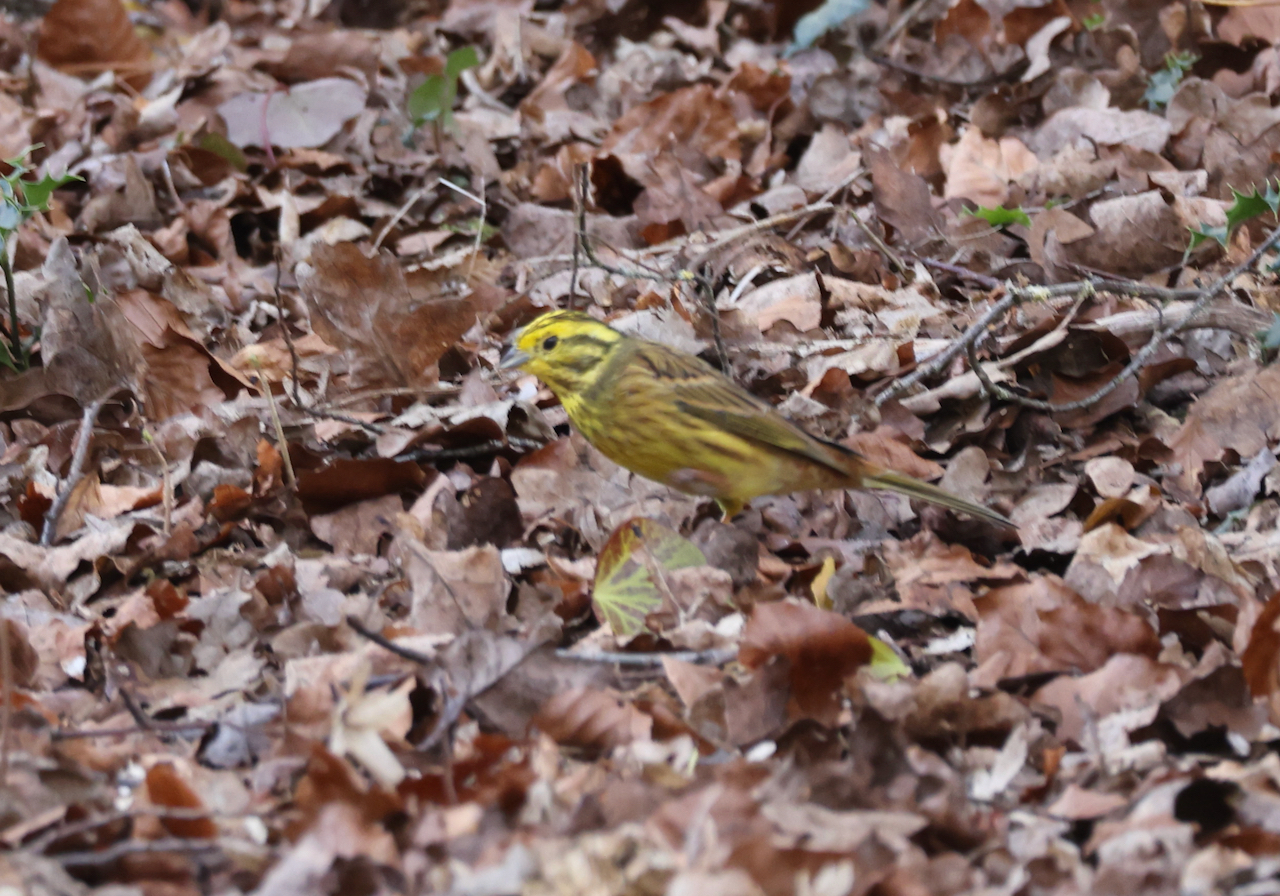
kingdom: Animalia
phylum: Chordata
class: Aves
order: Passeriformes
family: Emberizidae
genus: Emberiza
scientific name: Emberiza citrinella
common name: Yellowhammer
